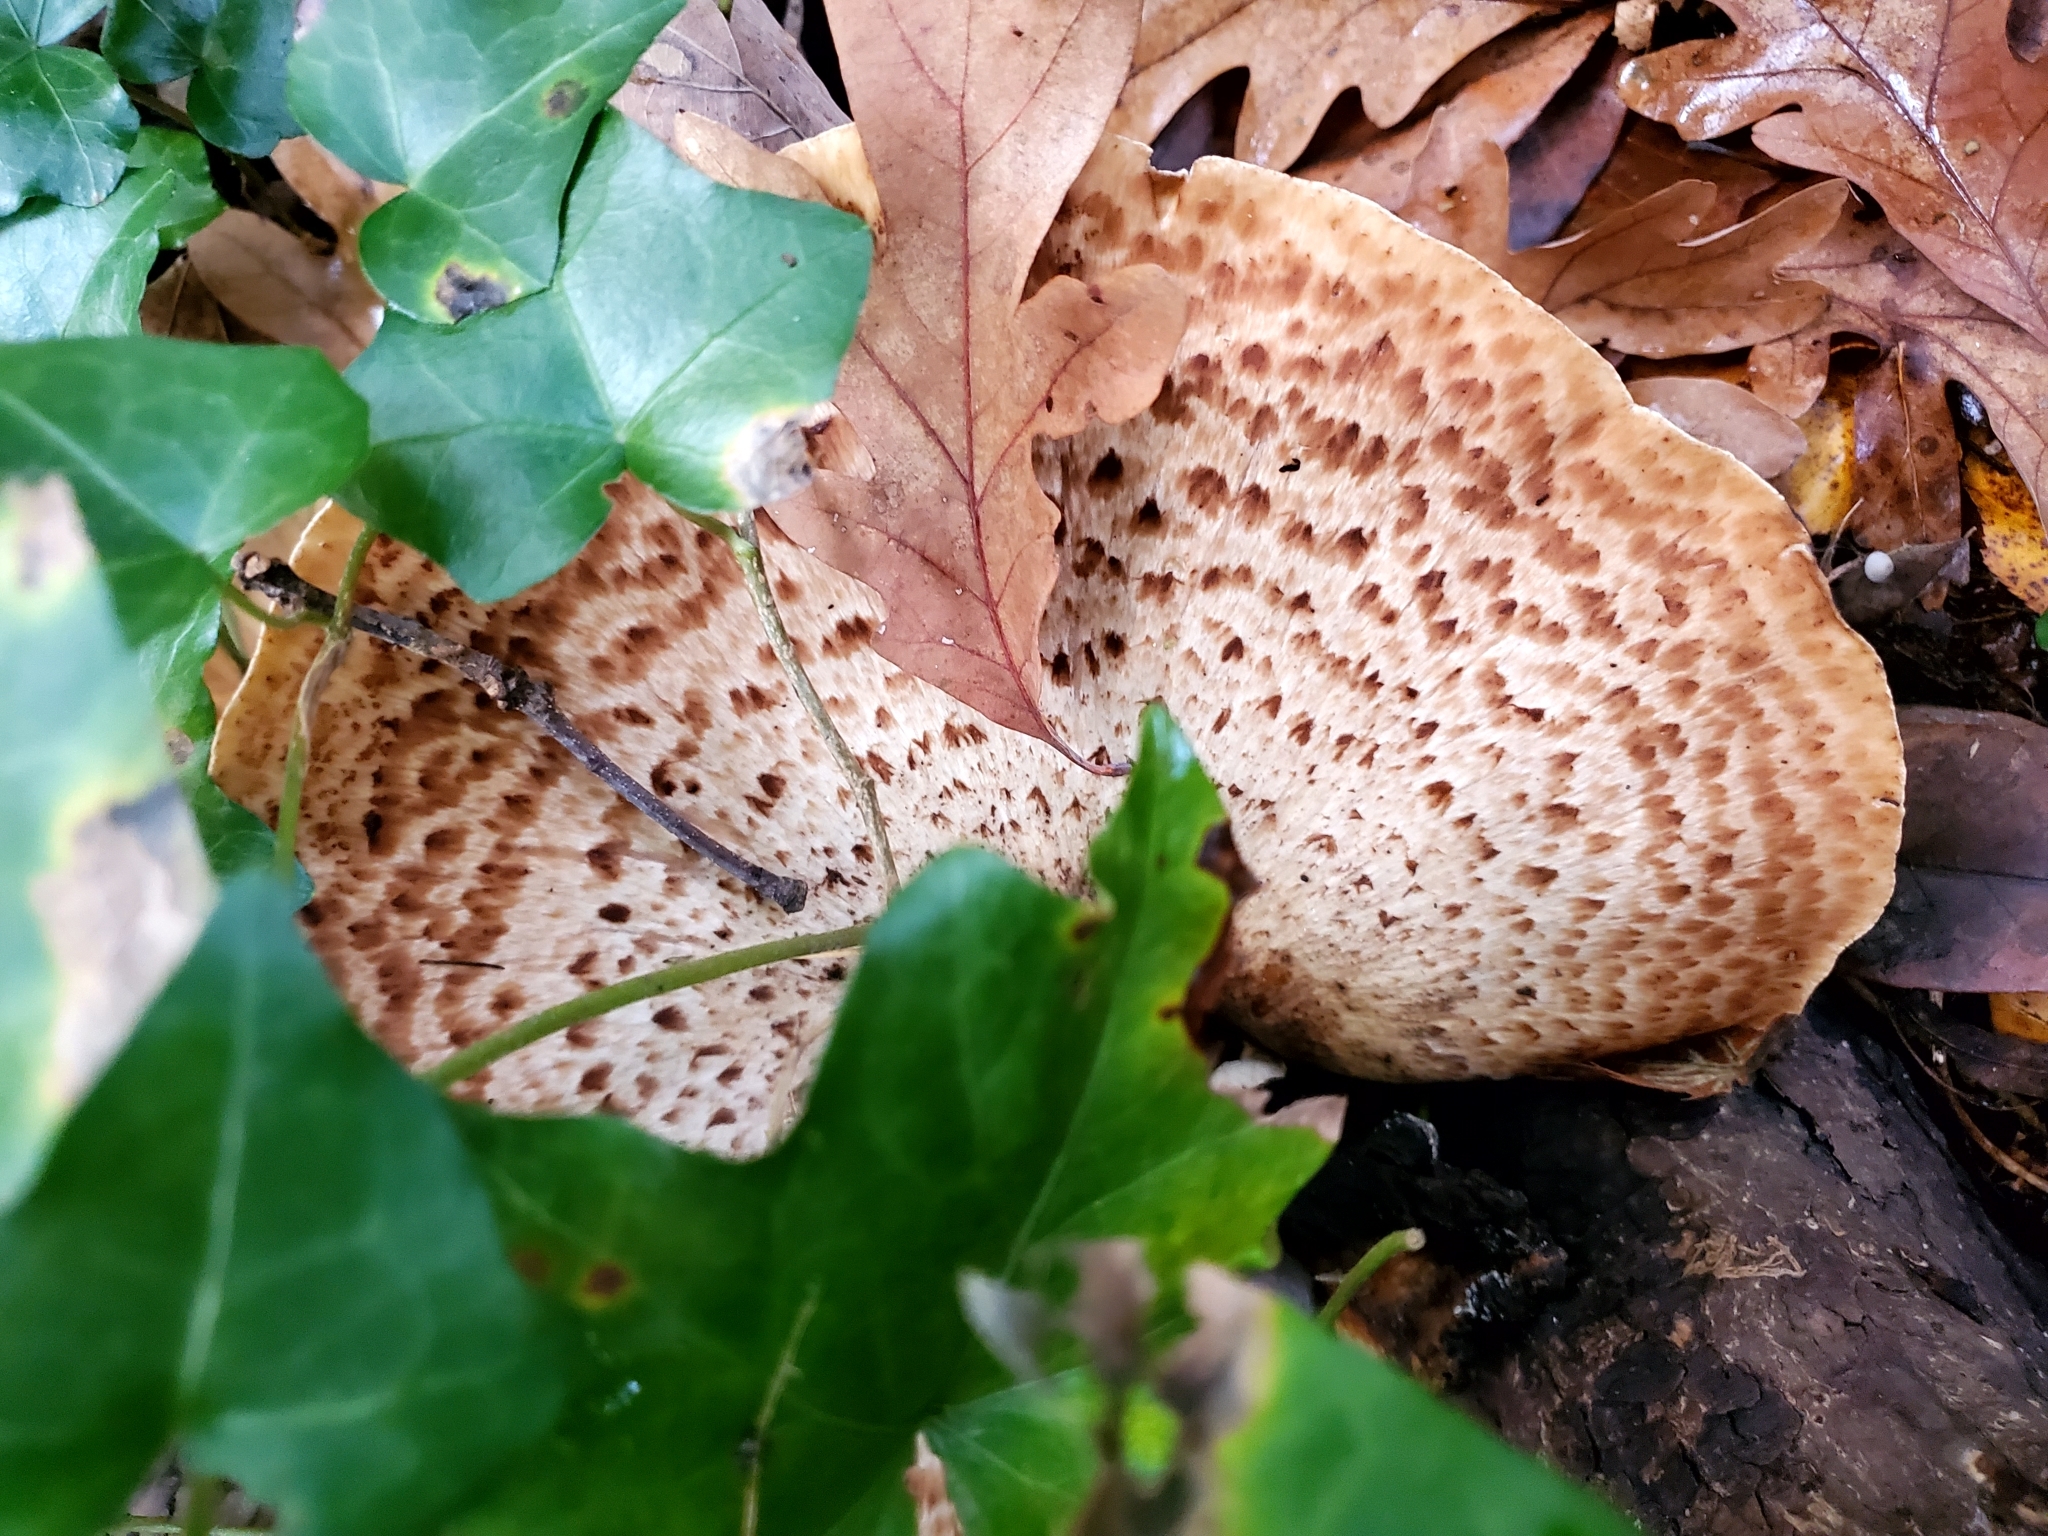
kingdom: Fungi
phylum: Basidiomycota
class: Agaricomycetes
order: Polyporales
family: Polyporaceae
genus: Cerioporus
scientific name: Cerioporus squamosus
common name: Dryad's saddle
